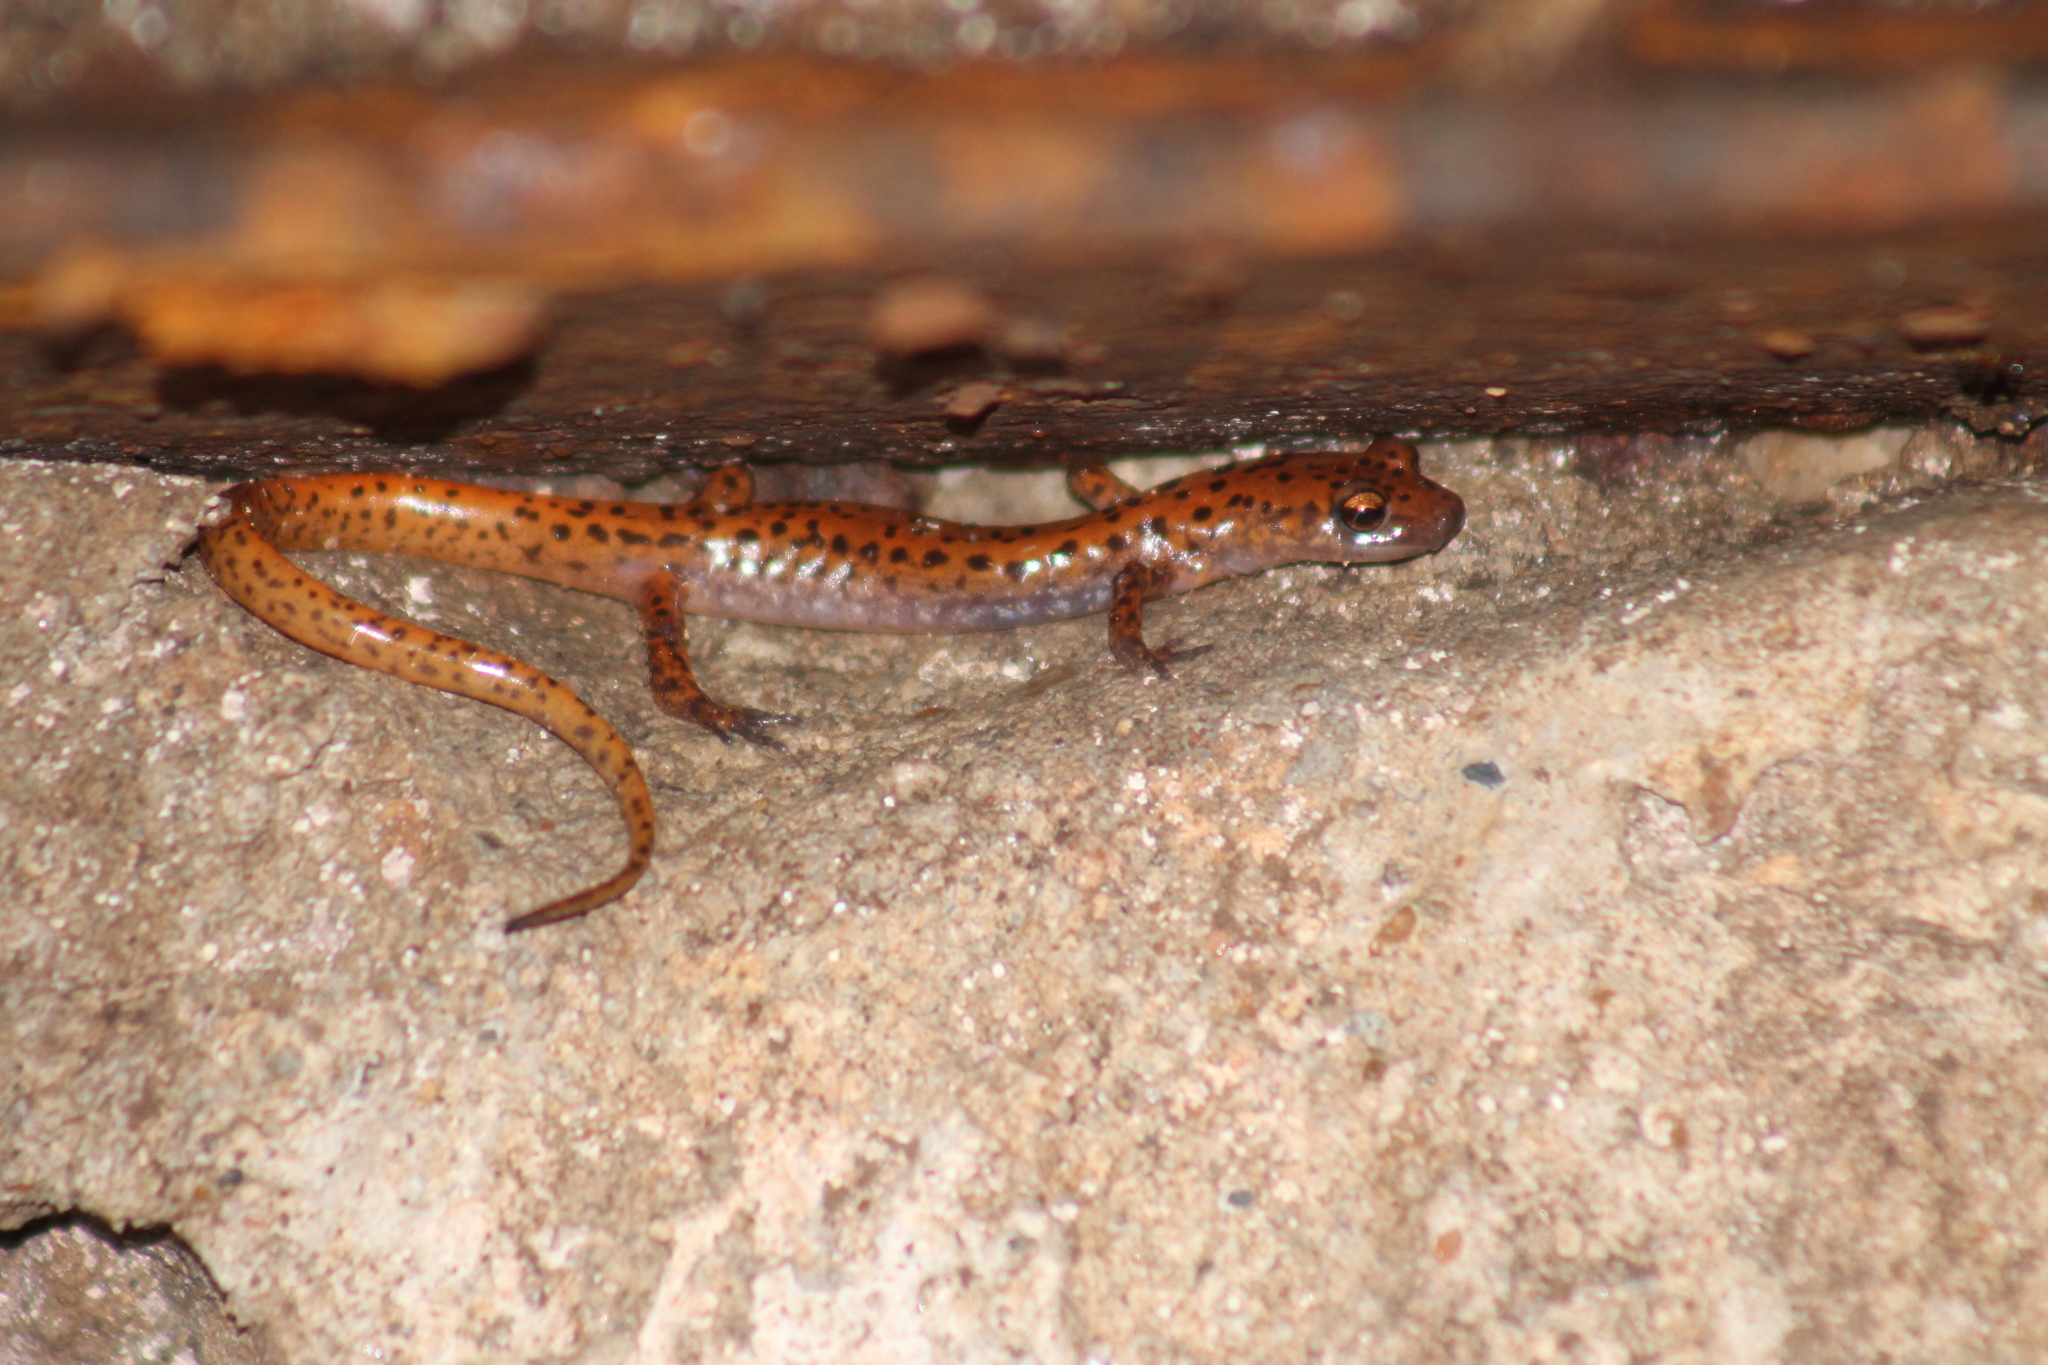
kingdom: Animalia
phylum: Chordata
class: Amphibia
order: Caudata
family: Plethodontidae
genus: Eurycea
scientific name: Eurycea lucifuga
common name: Cave salamander
